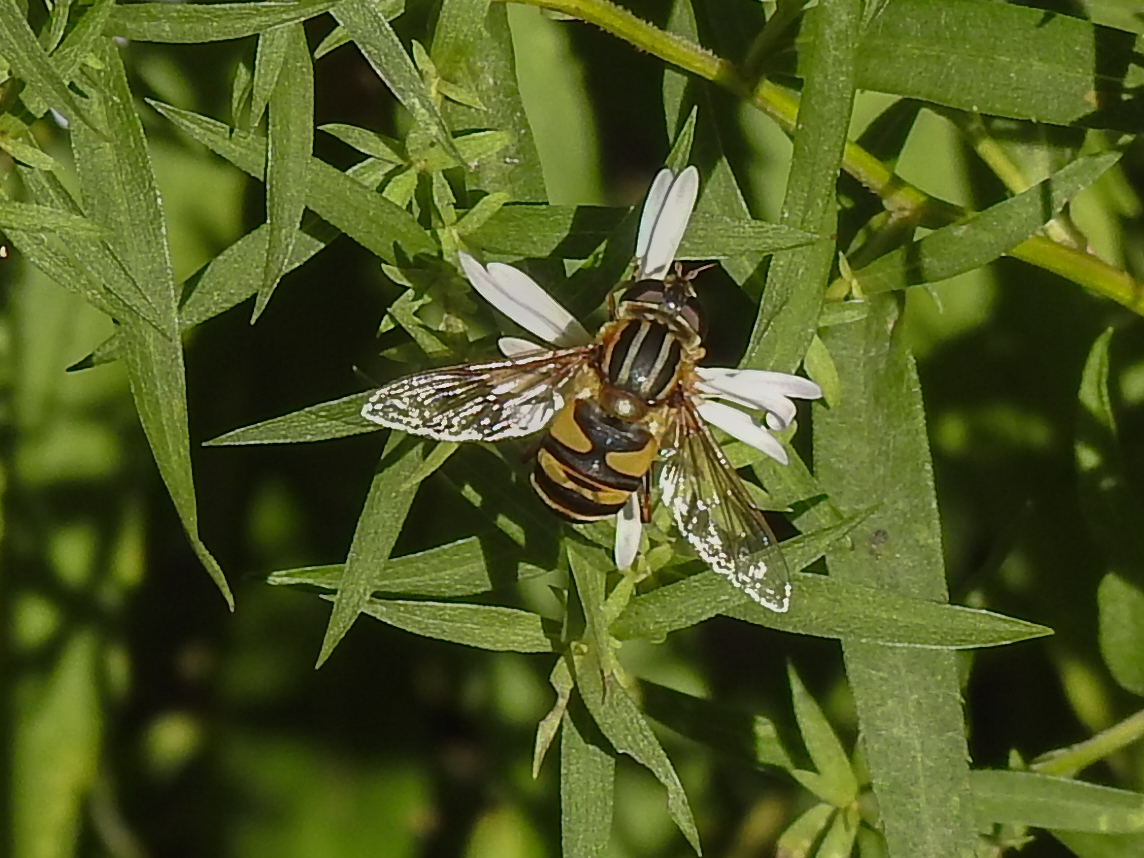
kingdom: Animalia
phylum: Arthropoda
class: Insecta
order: Diptera
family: Syrphidae
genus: Helophilus
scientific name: Helophilus fasciatus
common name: Narrow-headed marsh fly
